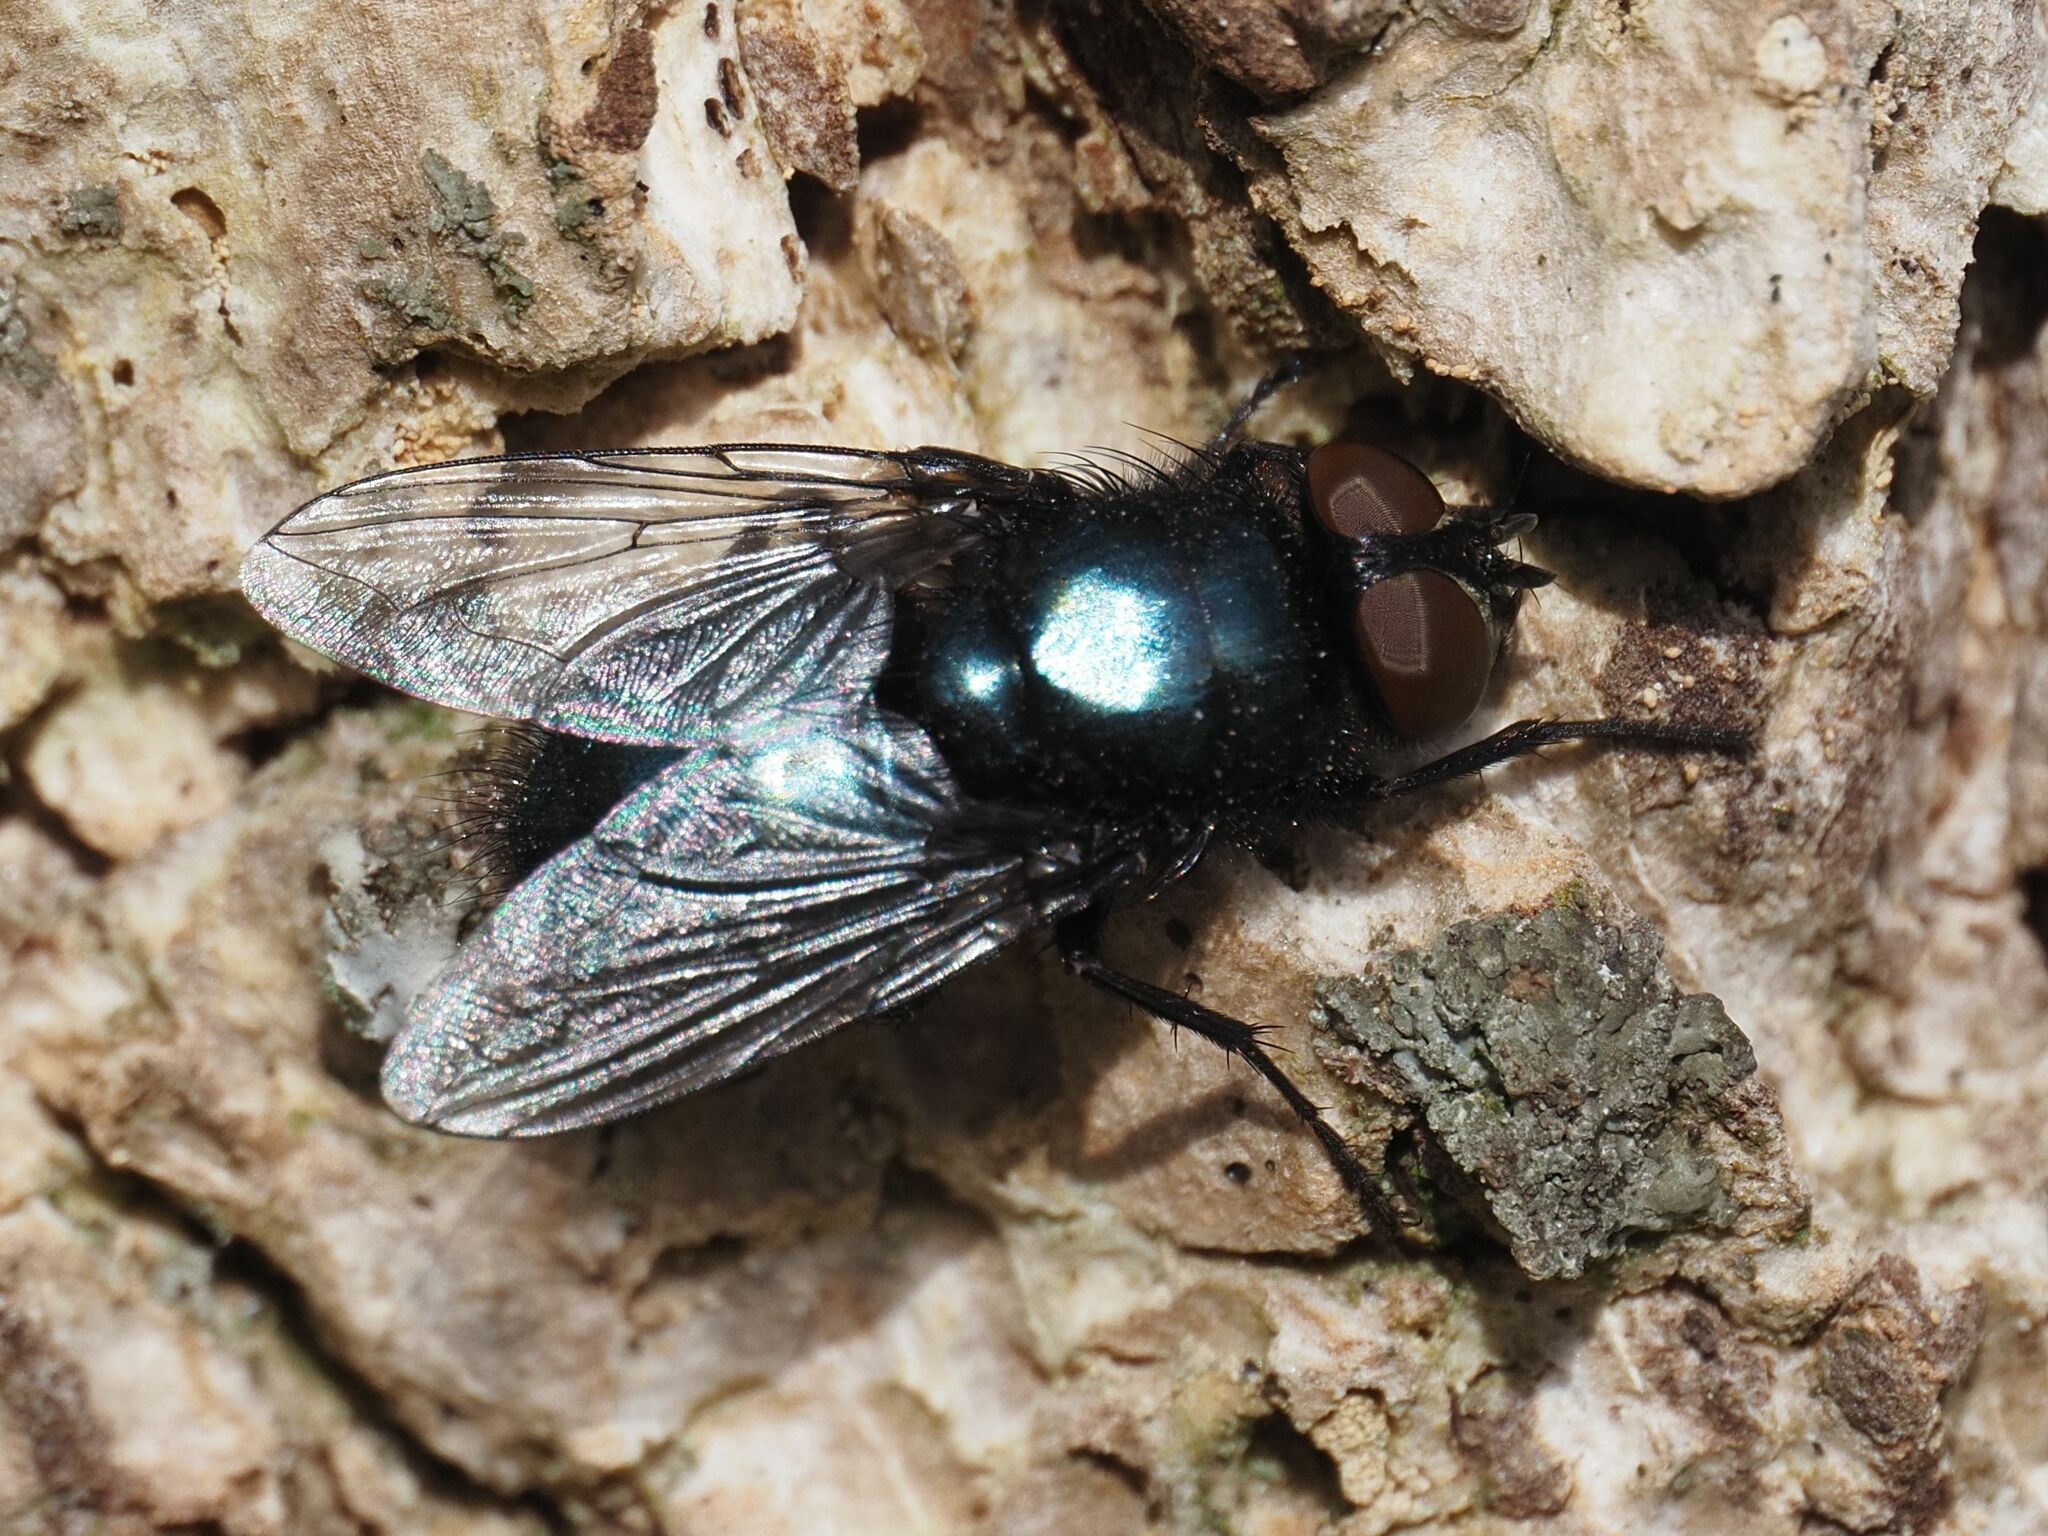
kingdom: Animalia
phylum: Arthropoda
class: Insecta
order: Diptera
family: Calliphoridae
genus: Protophormia
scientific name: Protophormia terraenovae
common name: Blackbottle
